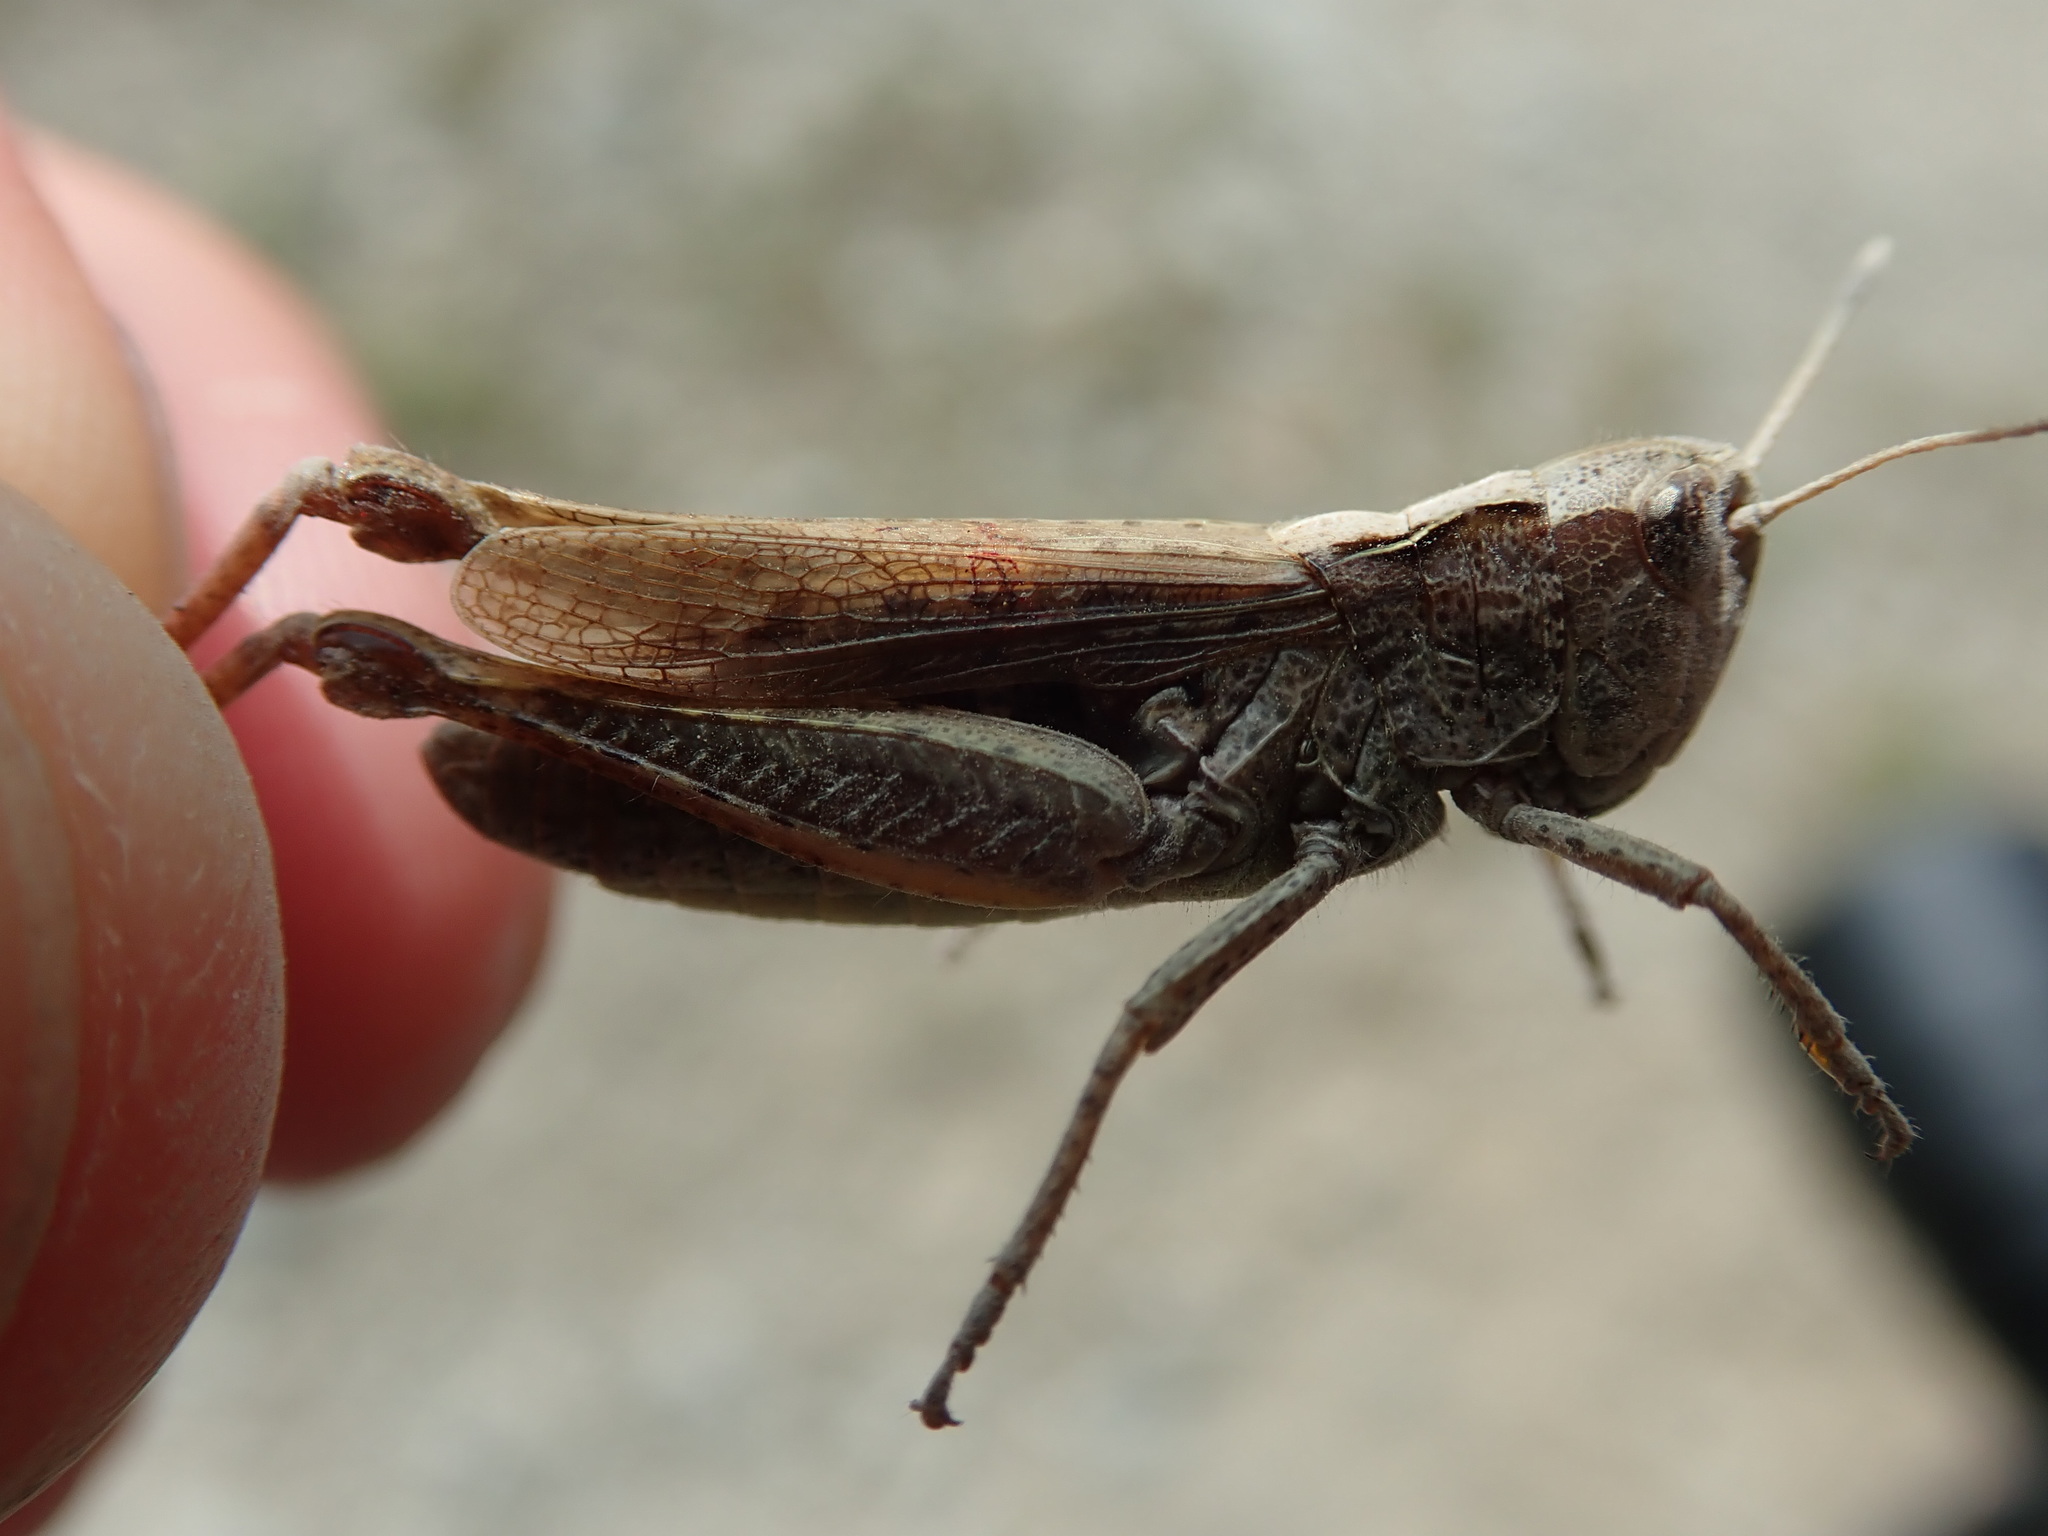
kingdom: Animalia
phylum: Arthropoda
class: Insecta
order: Orthoptera
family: Acrididae
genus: Gomphocerippus
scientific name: Gomphocerippus rufus
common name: Rufous grasshopper
